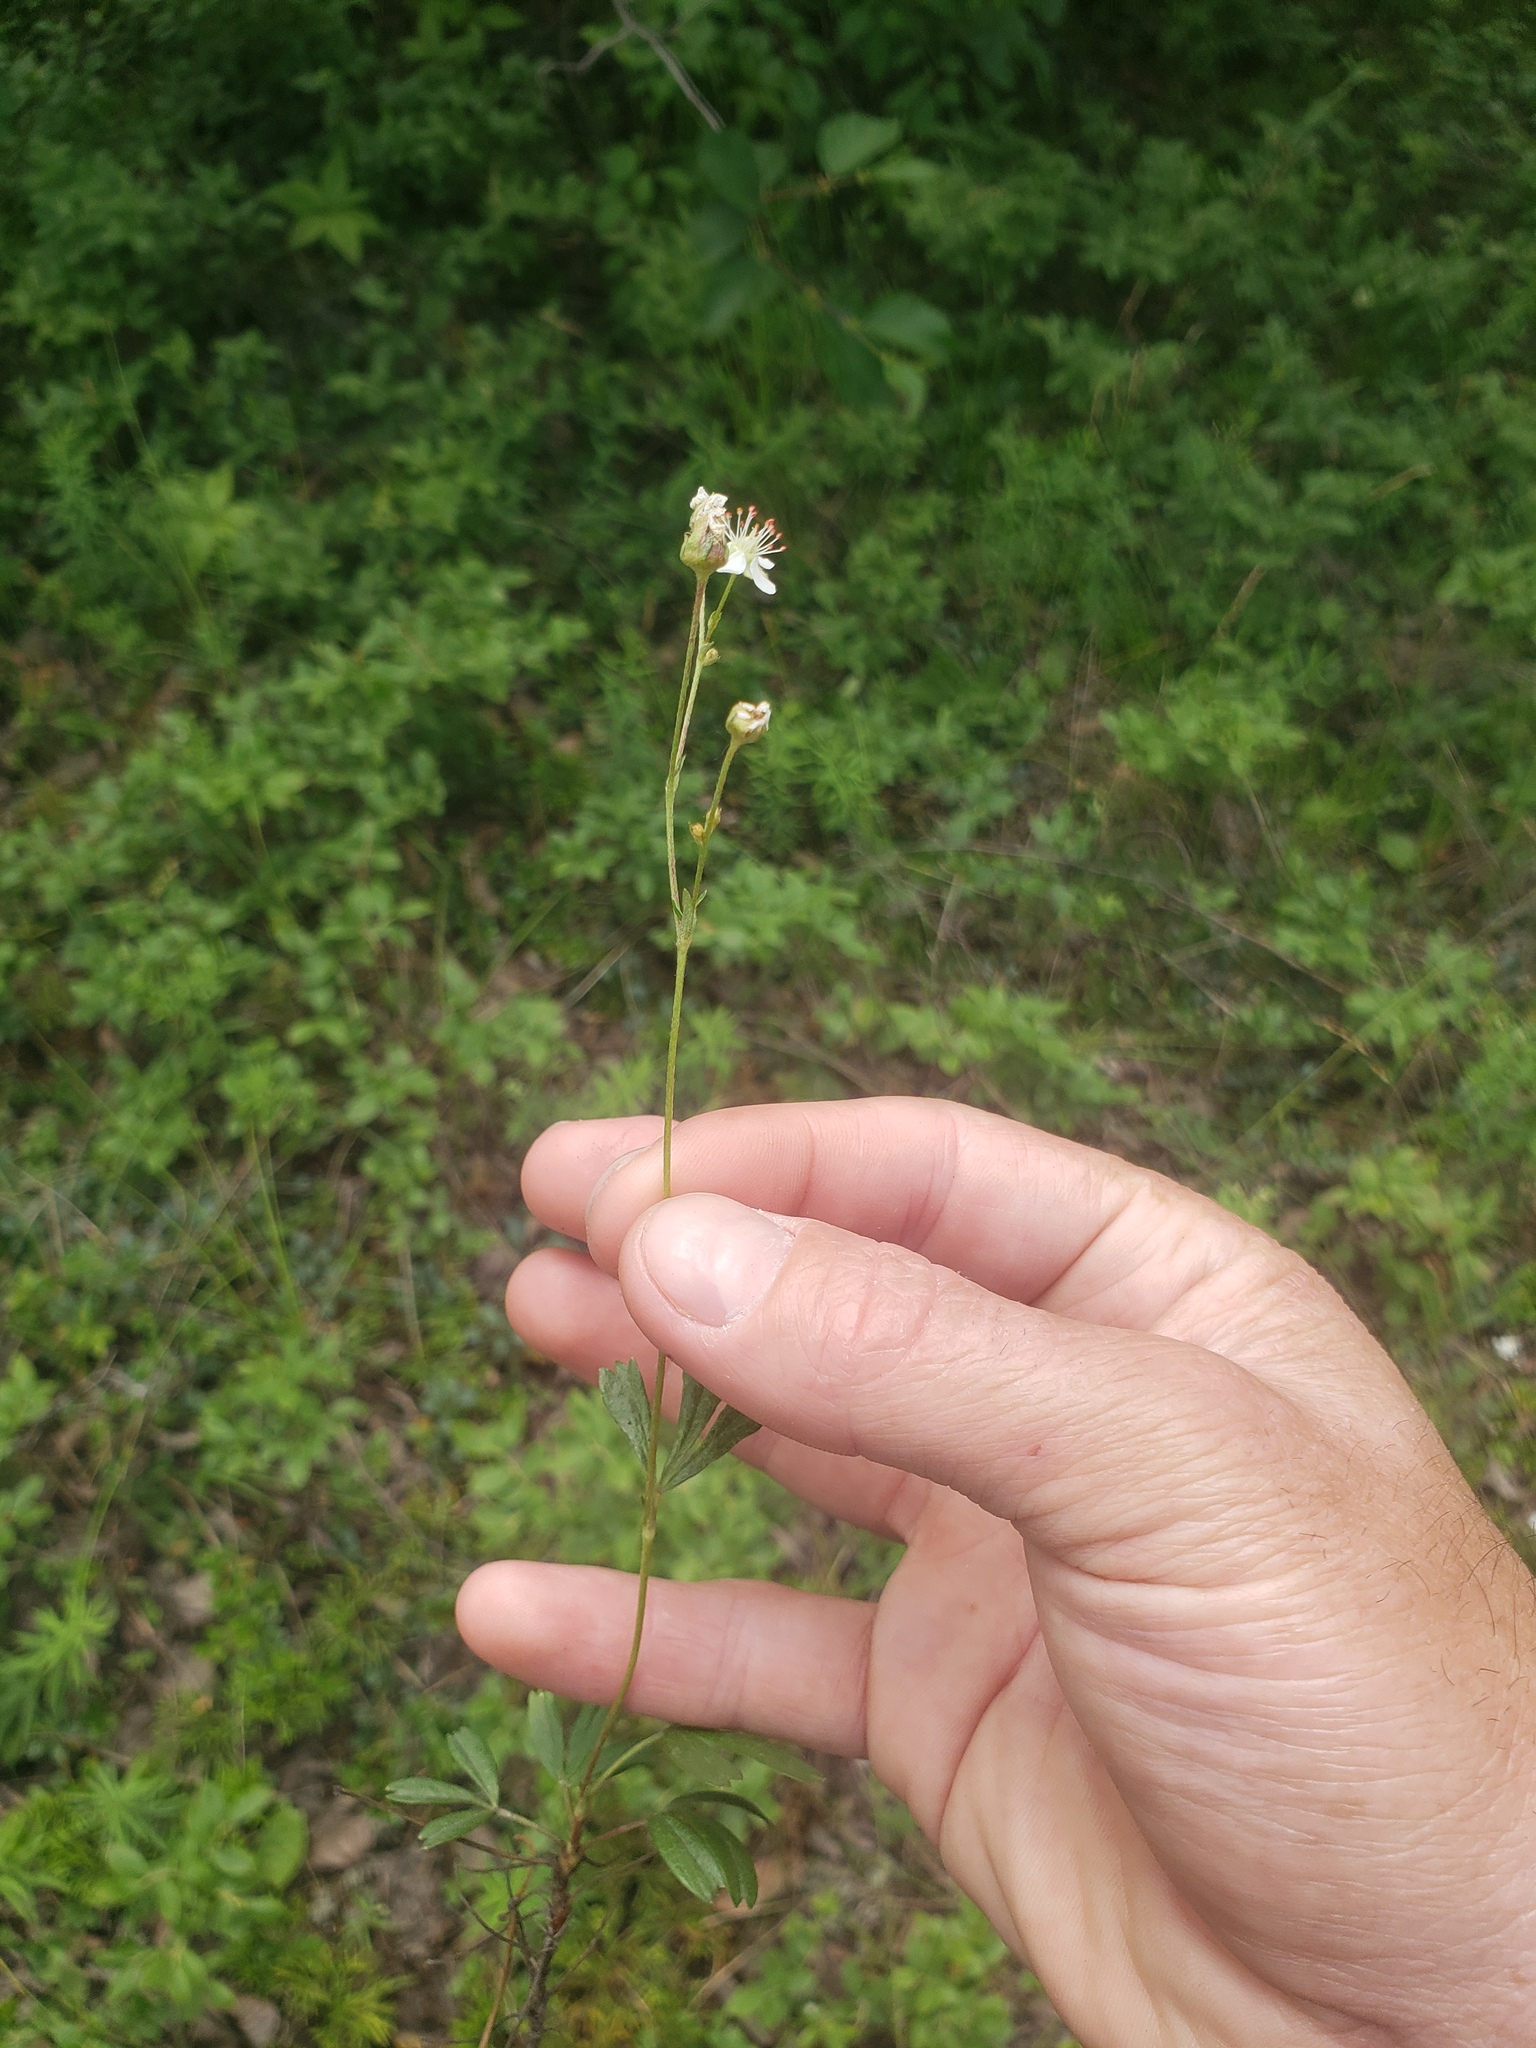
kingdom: Plantae
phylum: Tracheophyta
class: Magnoliopsida
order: Rosales
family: Rosaceae
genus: Sibbaldia
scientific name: Sibbaldia tridentata
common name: Three-toothed cinquefoil
